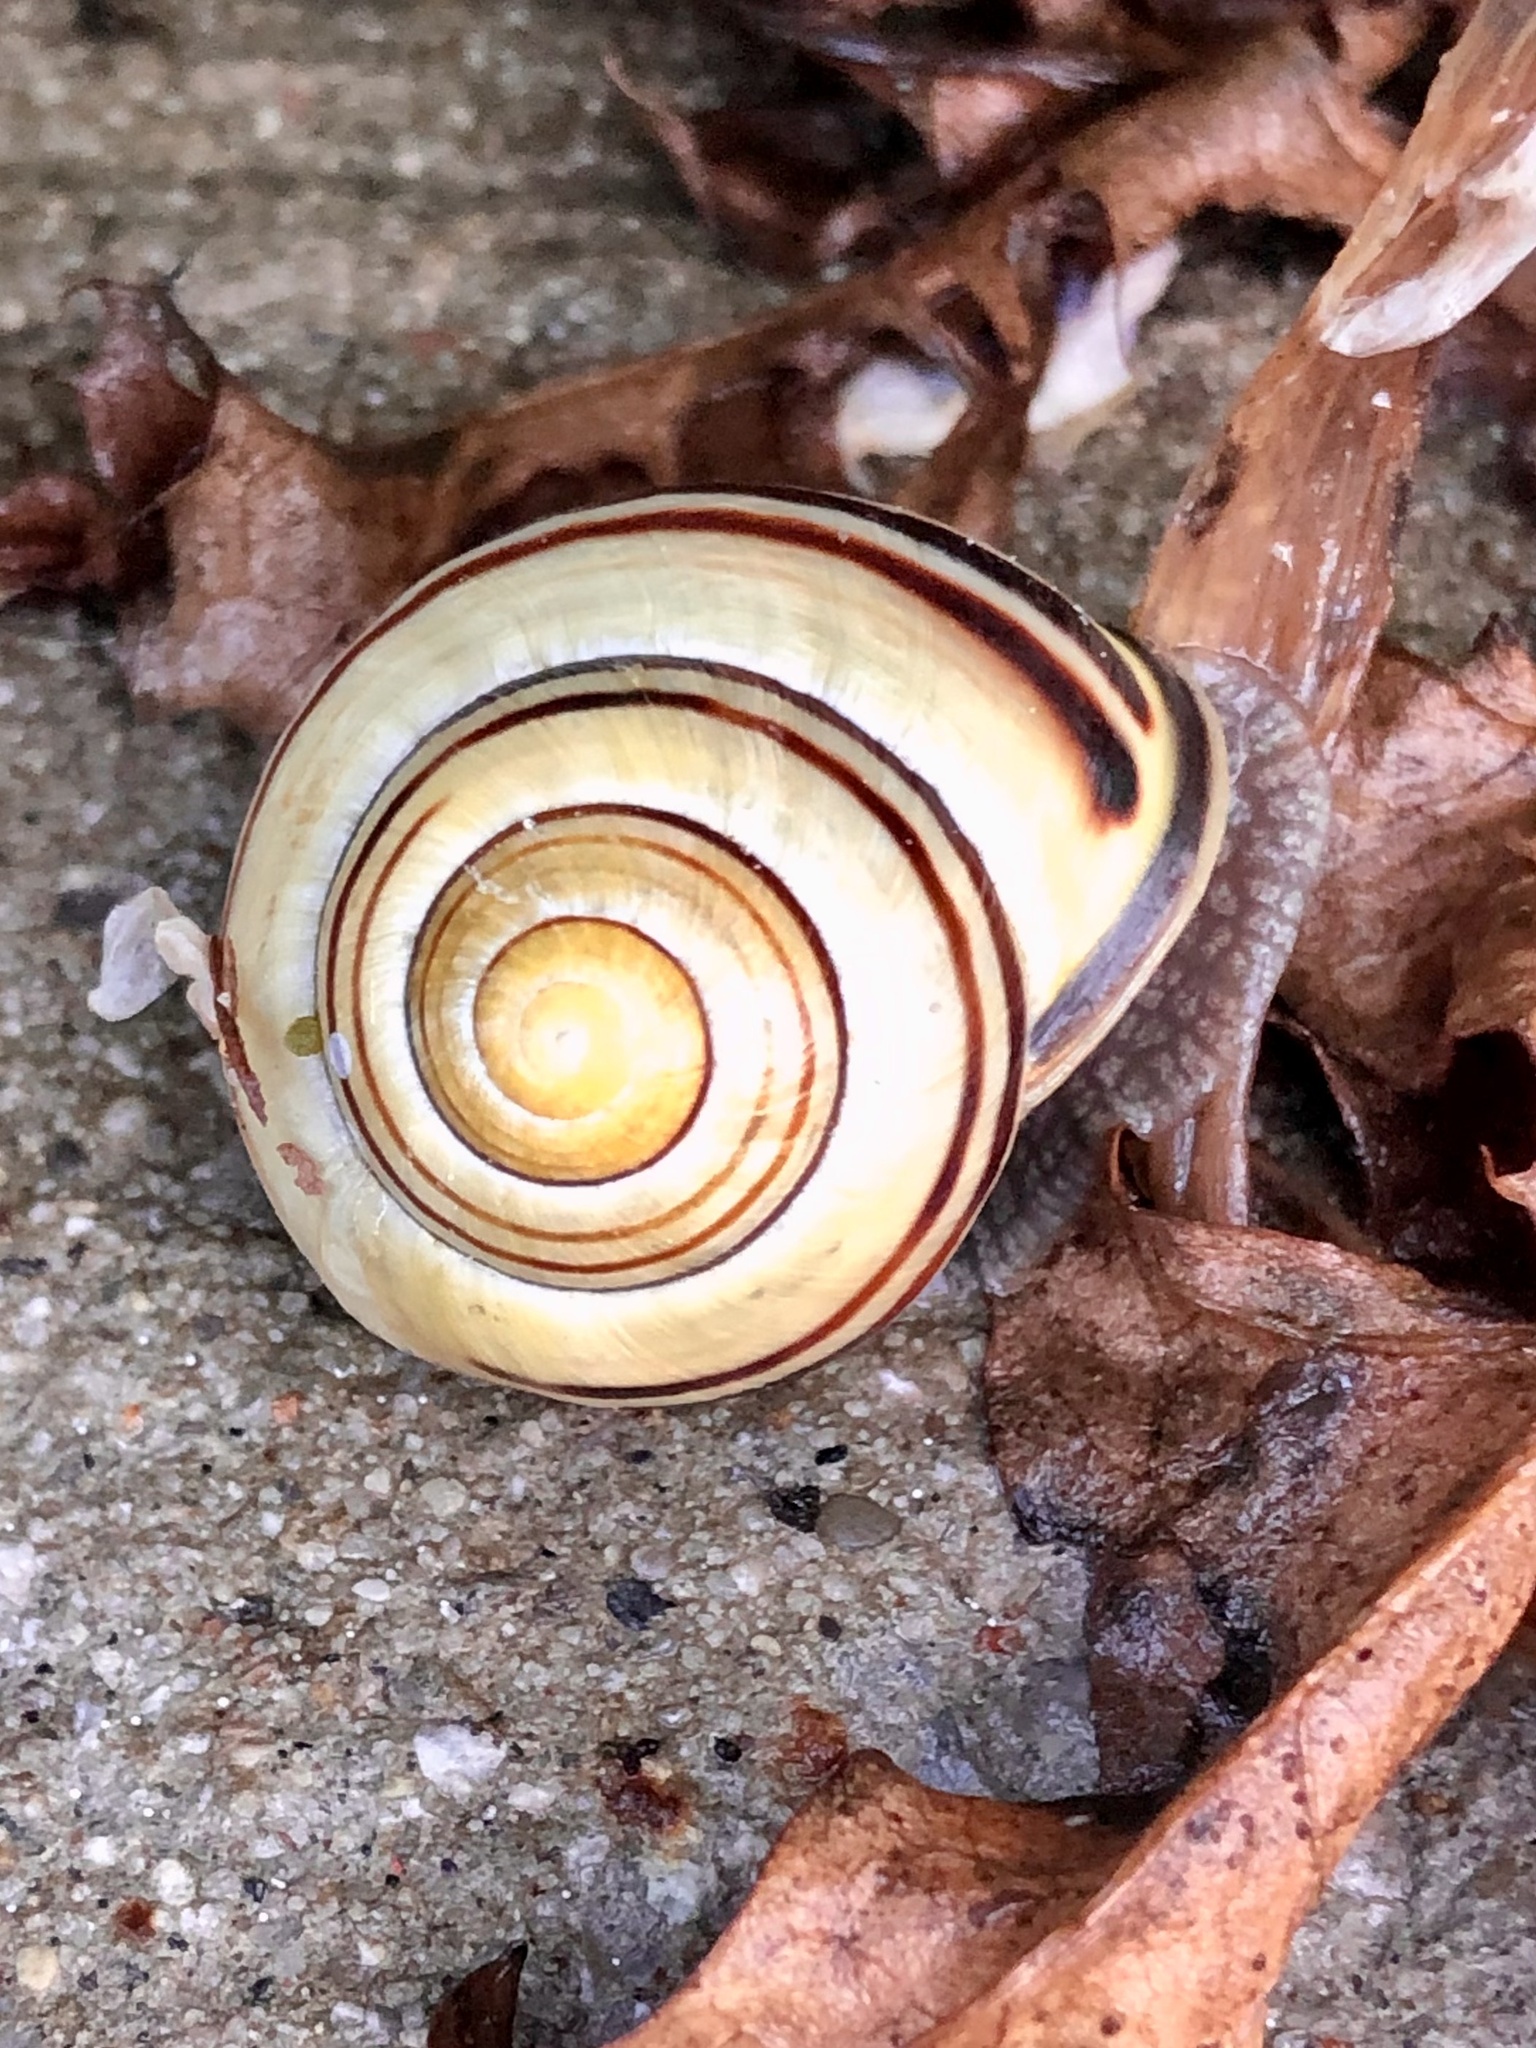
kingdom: Animalia
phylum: Mollusca
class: Gastropoda
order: Stylommatophora
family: Helicidae
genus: Cepaea
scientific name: Cepaea nemoralis
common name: Grovesnail
